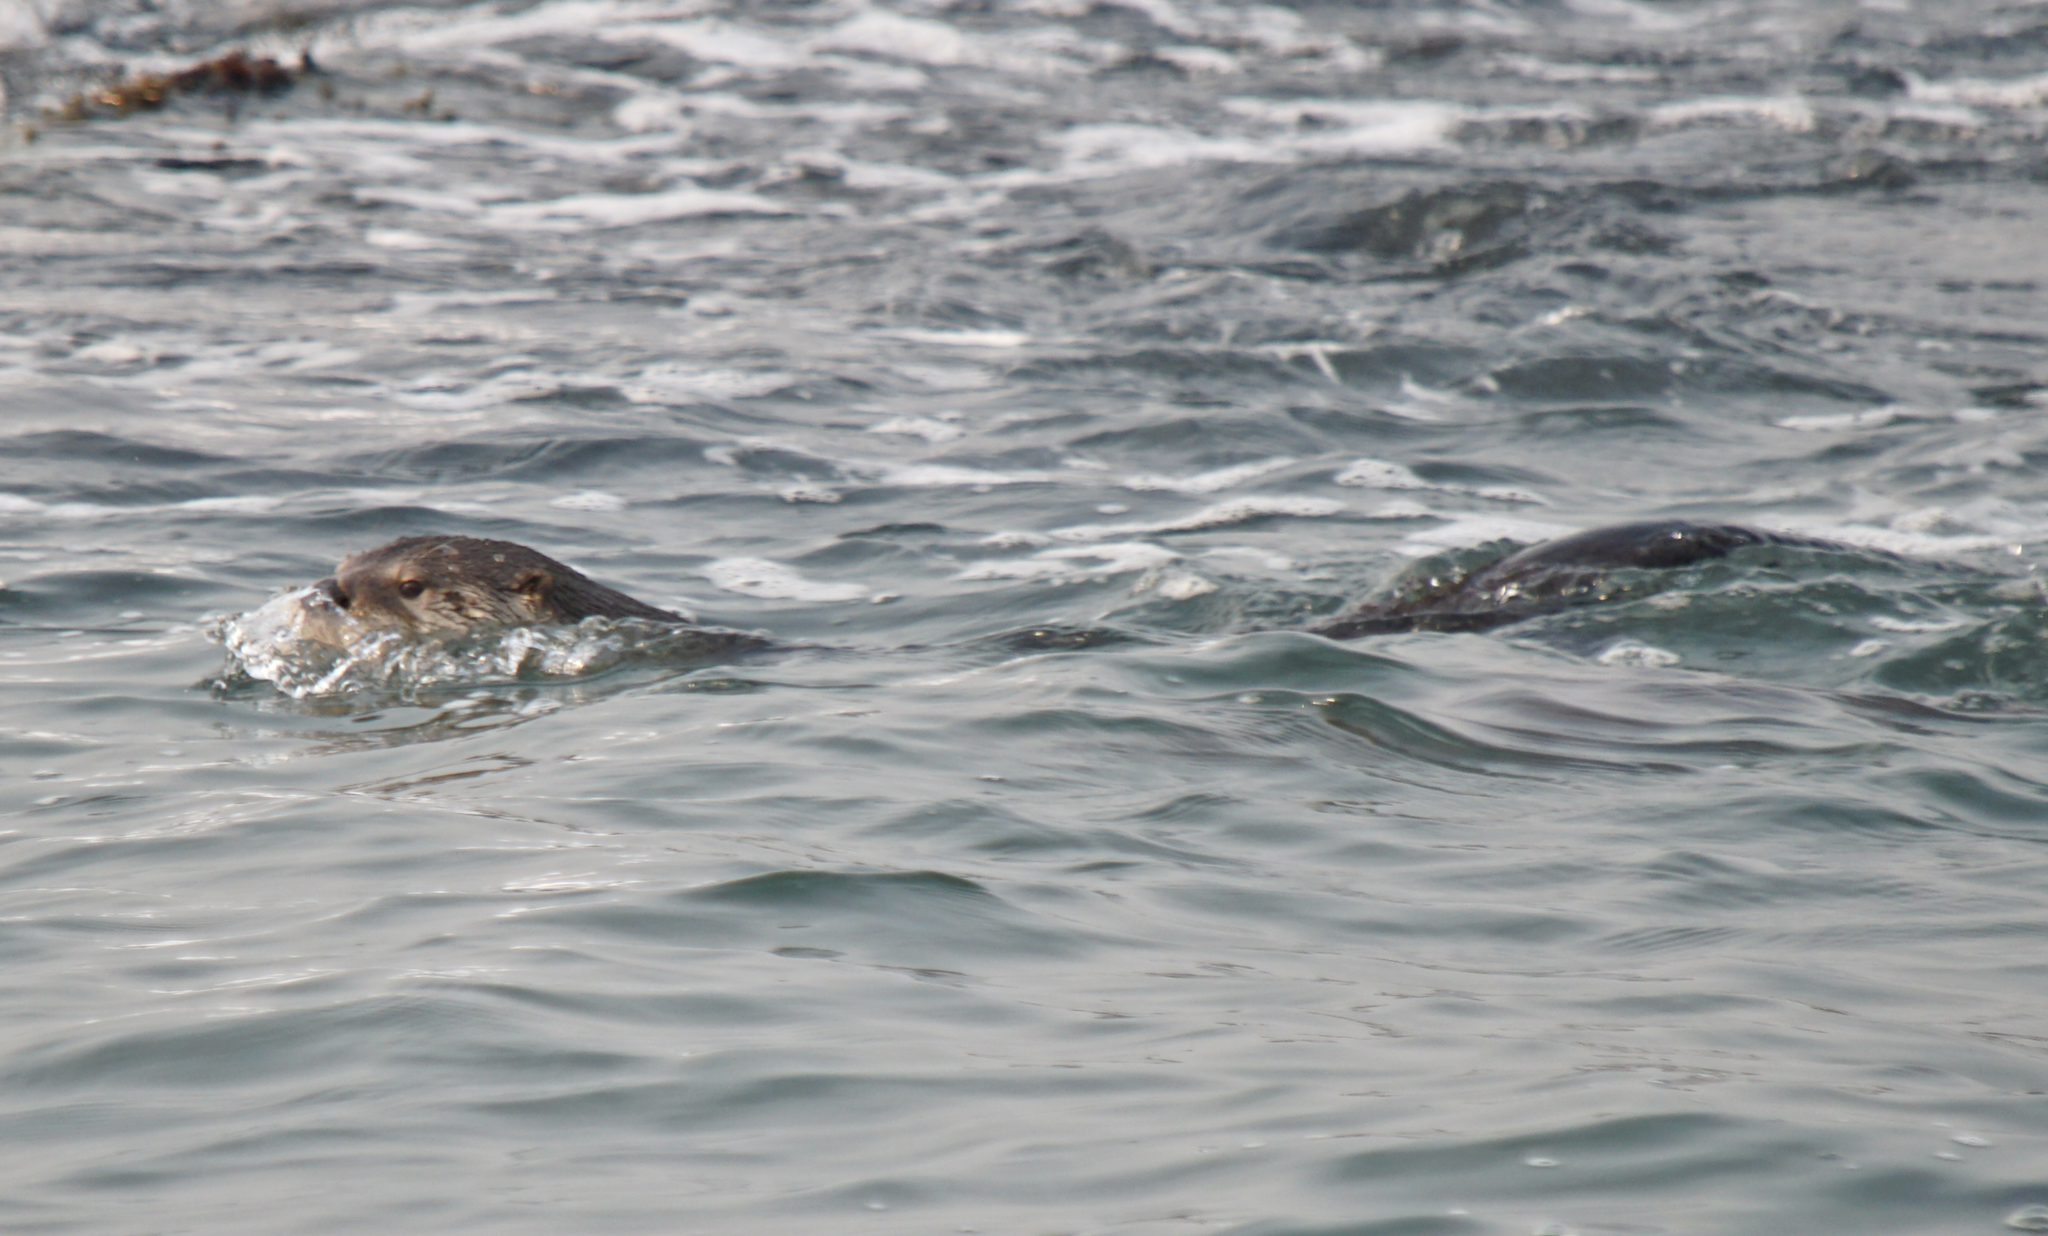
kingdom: Animalia
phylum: Chordata
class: Mammalia
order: Carnivora
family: Mustelidae
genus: Lontra
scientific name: Lontra canadensis
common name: North american river otter
